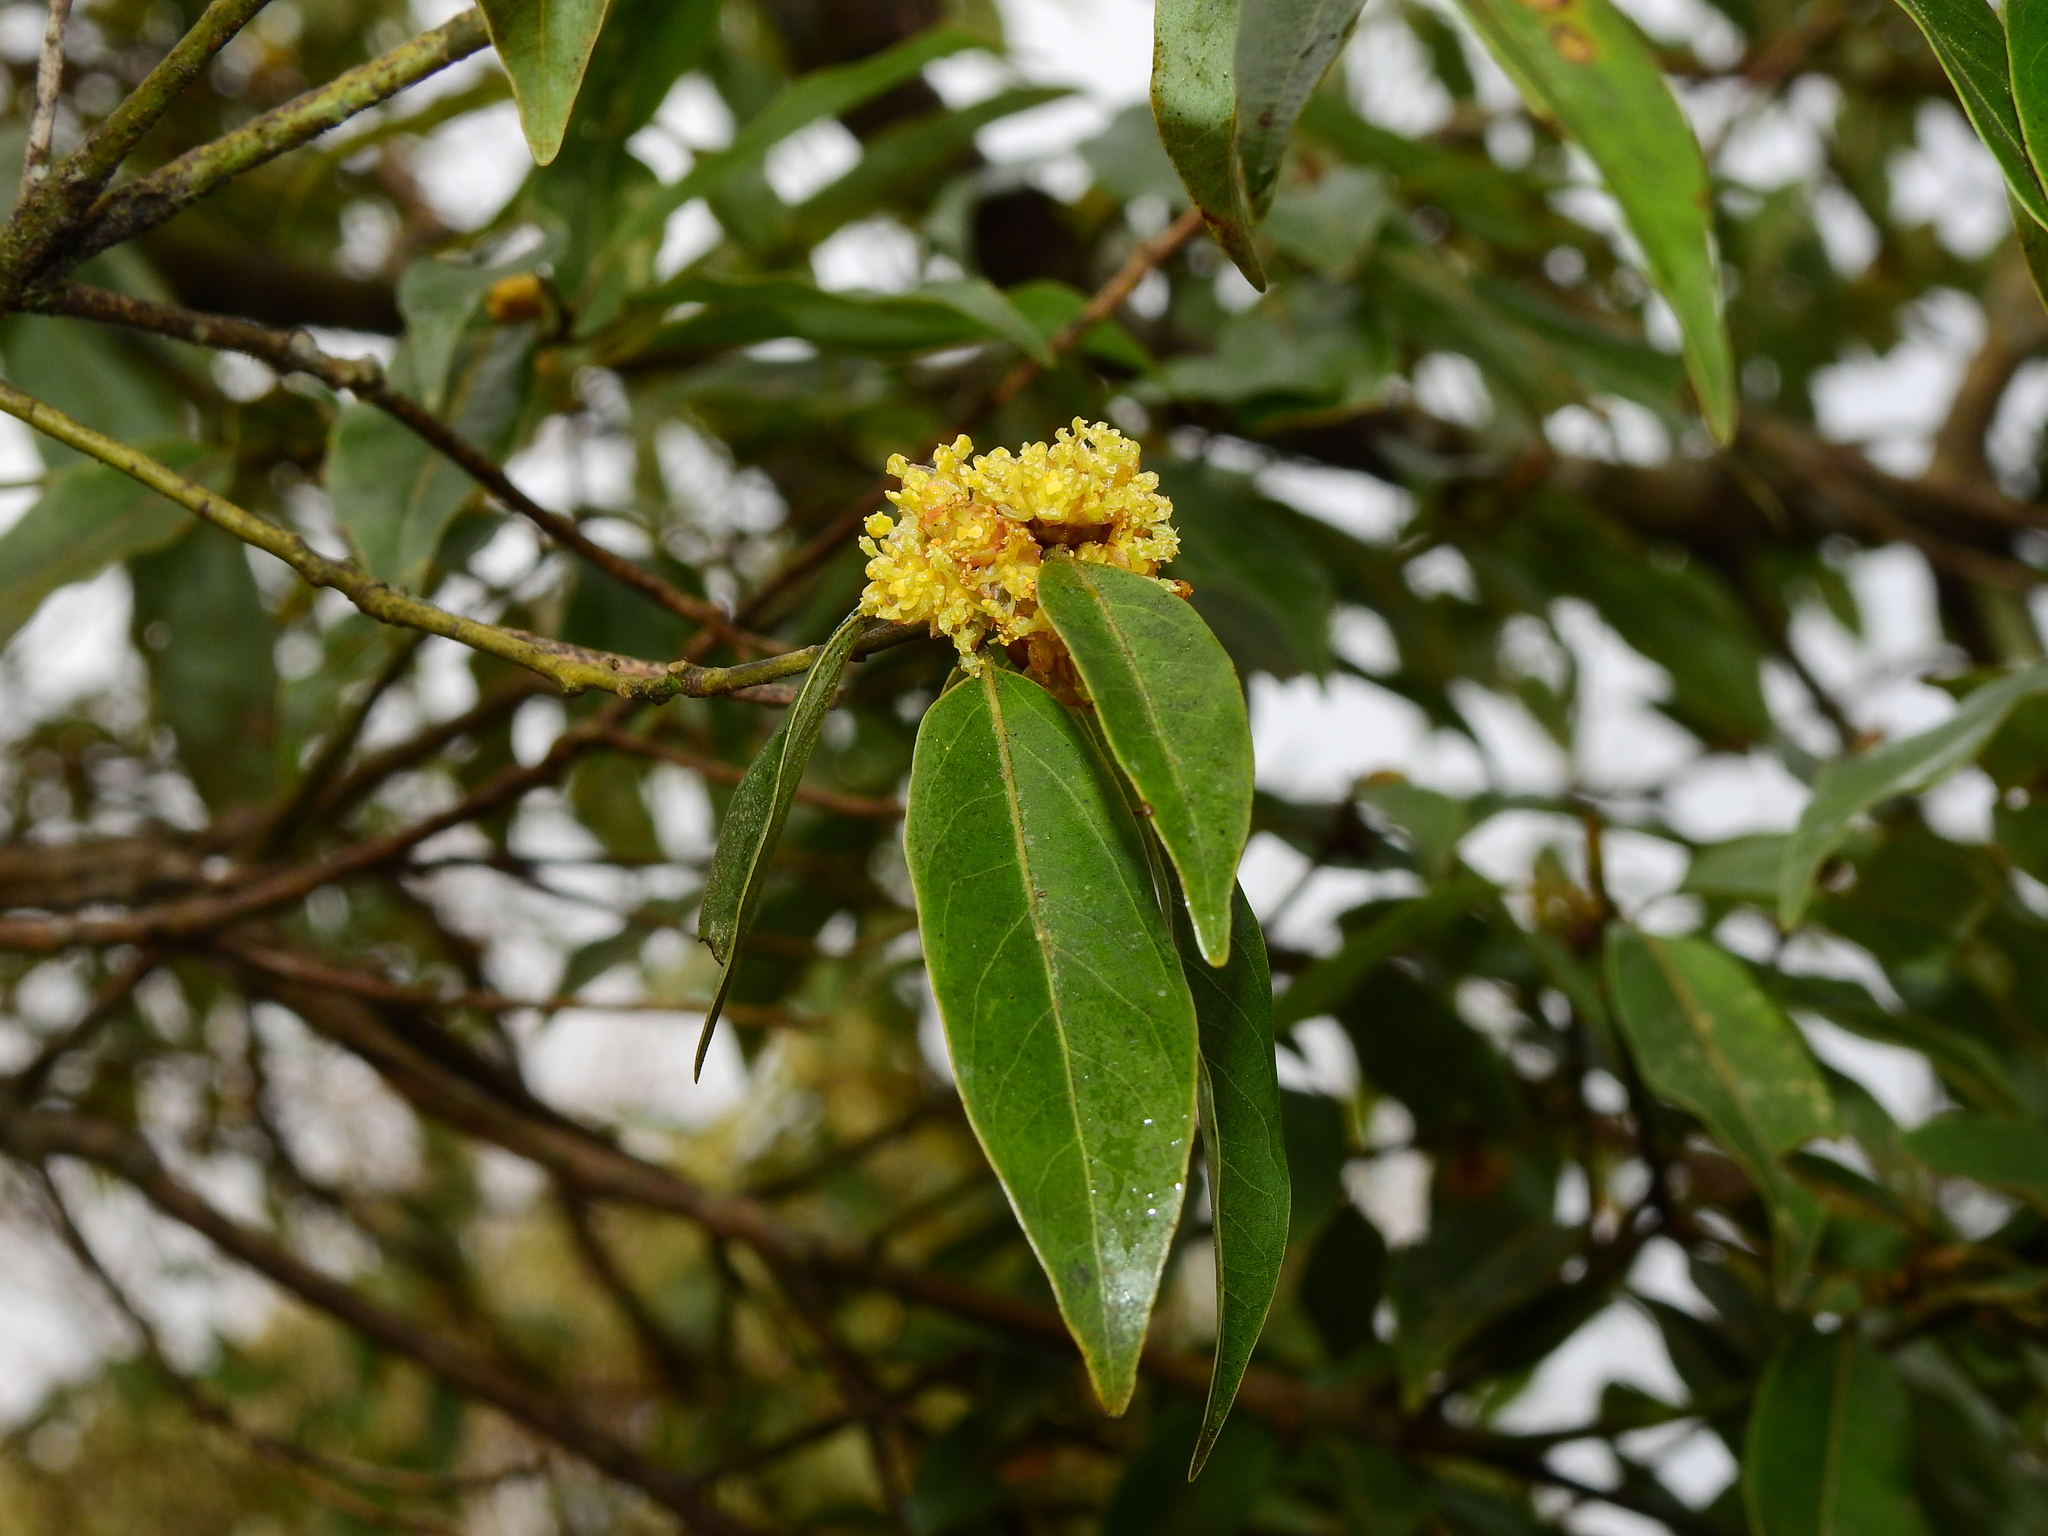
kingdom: Plantae
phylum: Tracheophyta
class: Magnoliopsida
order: Laurales
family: Lauraceae
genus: Neolitsea
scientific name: Neolitsea acuminatissima
